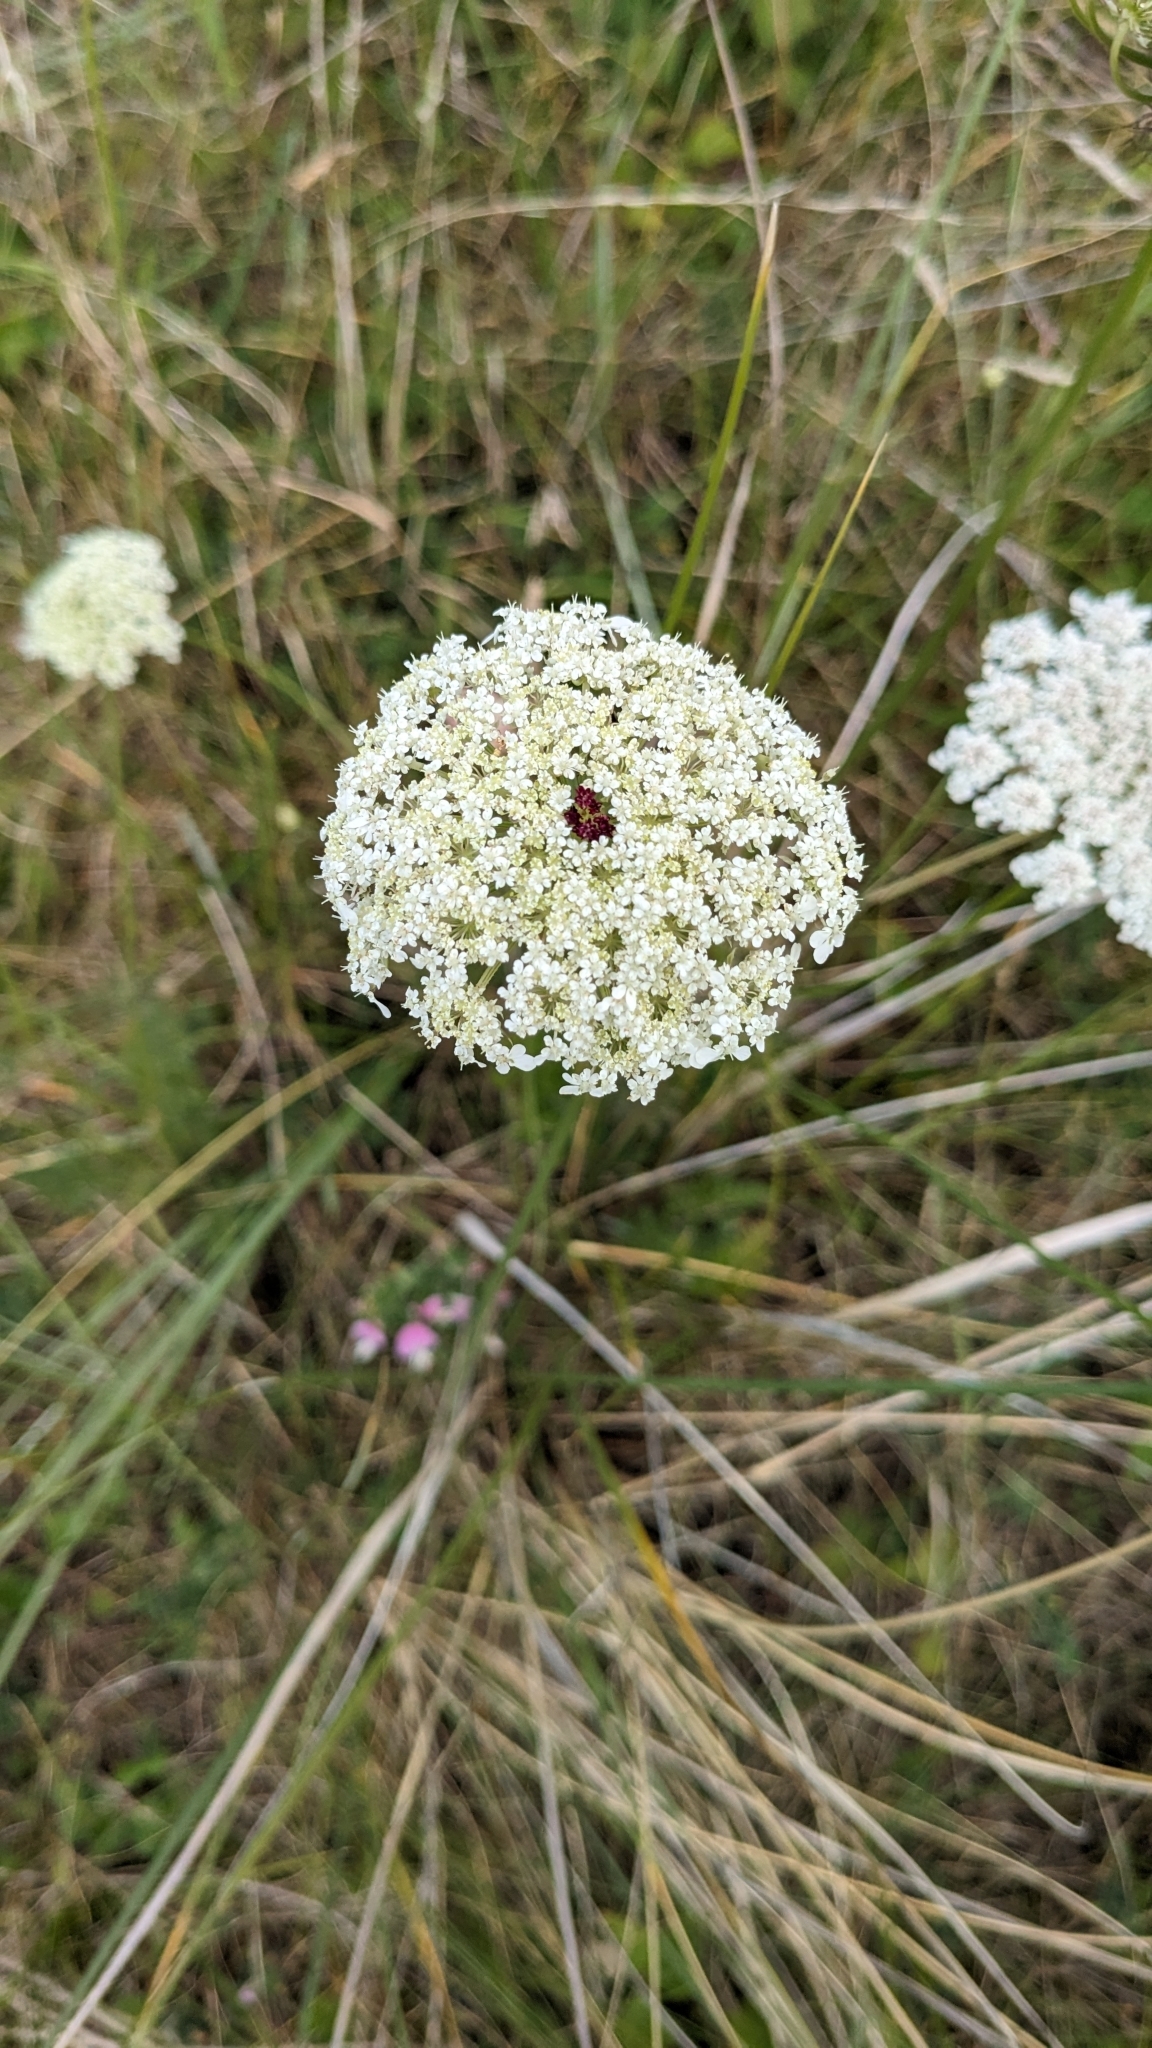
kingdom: Plantae
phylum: Tracheophyta
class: Magnoliopsida
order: Apiales
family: Apiaceae
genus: Daucus
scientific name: Daucus carota
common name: Wild carrot
